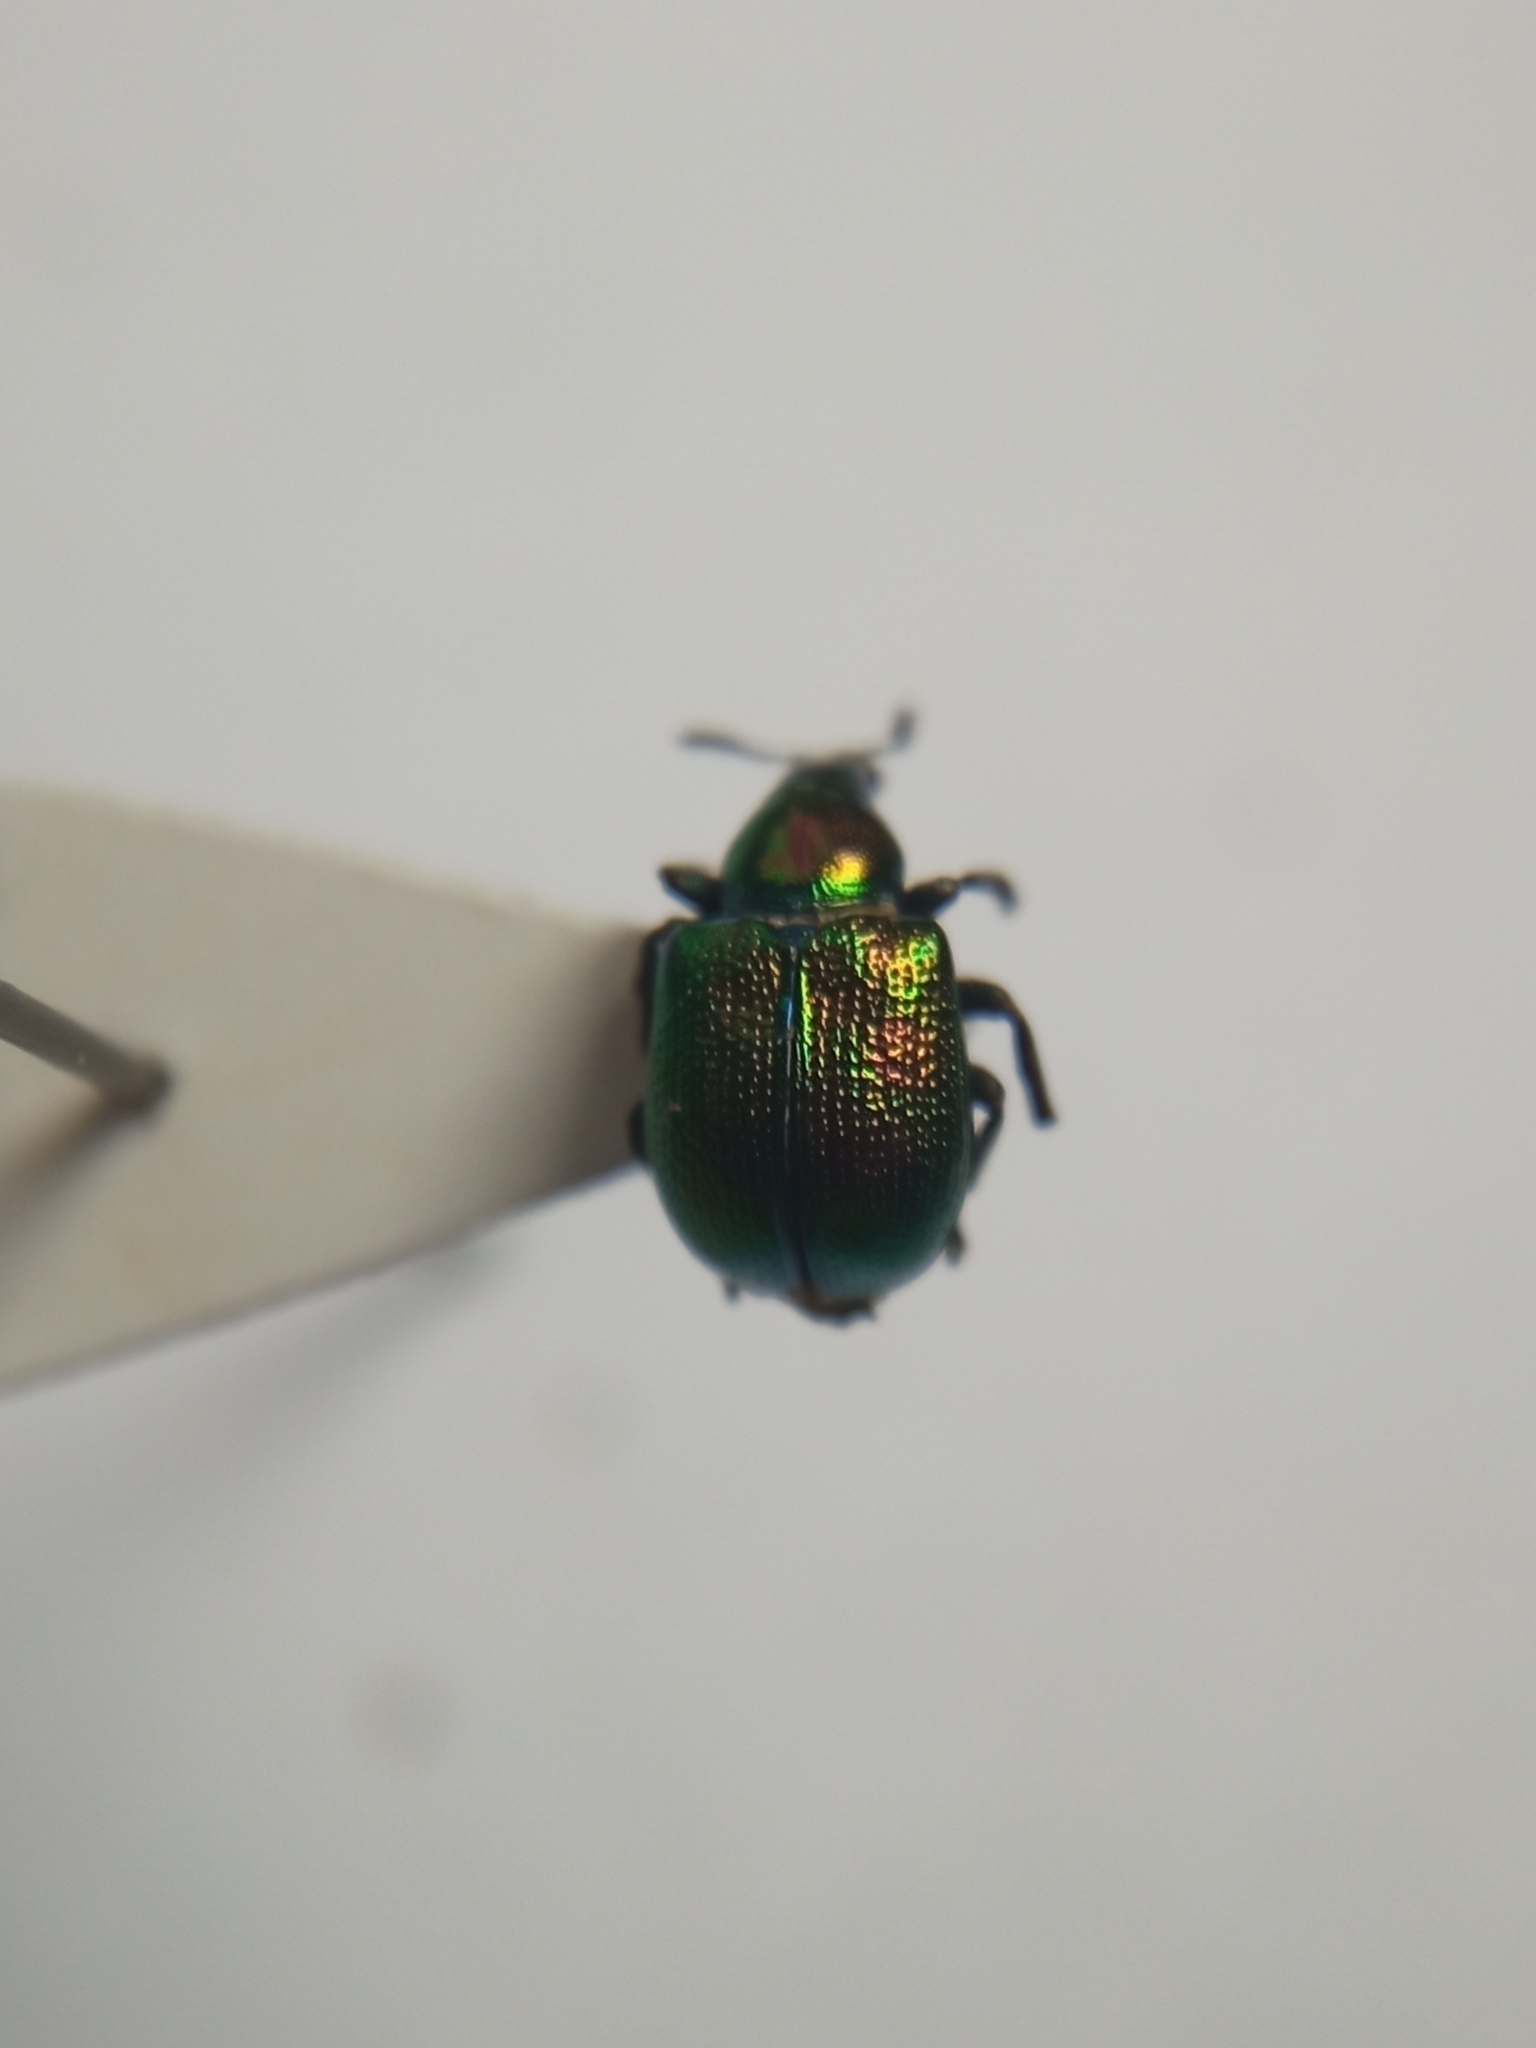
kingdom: Animalia
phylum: Arthropoda
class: Insecta
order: Coleoptera
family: Attelabidae
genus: Byctiscus
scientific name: Byctiscus populi
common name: Leaf-rolling weevil
